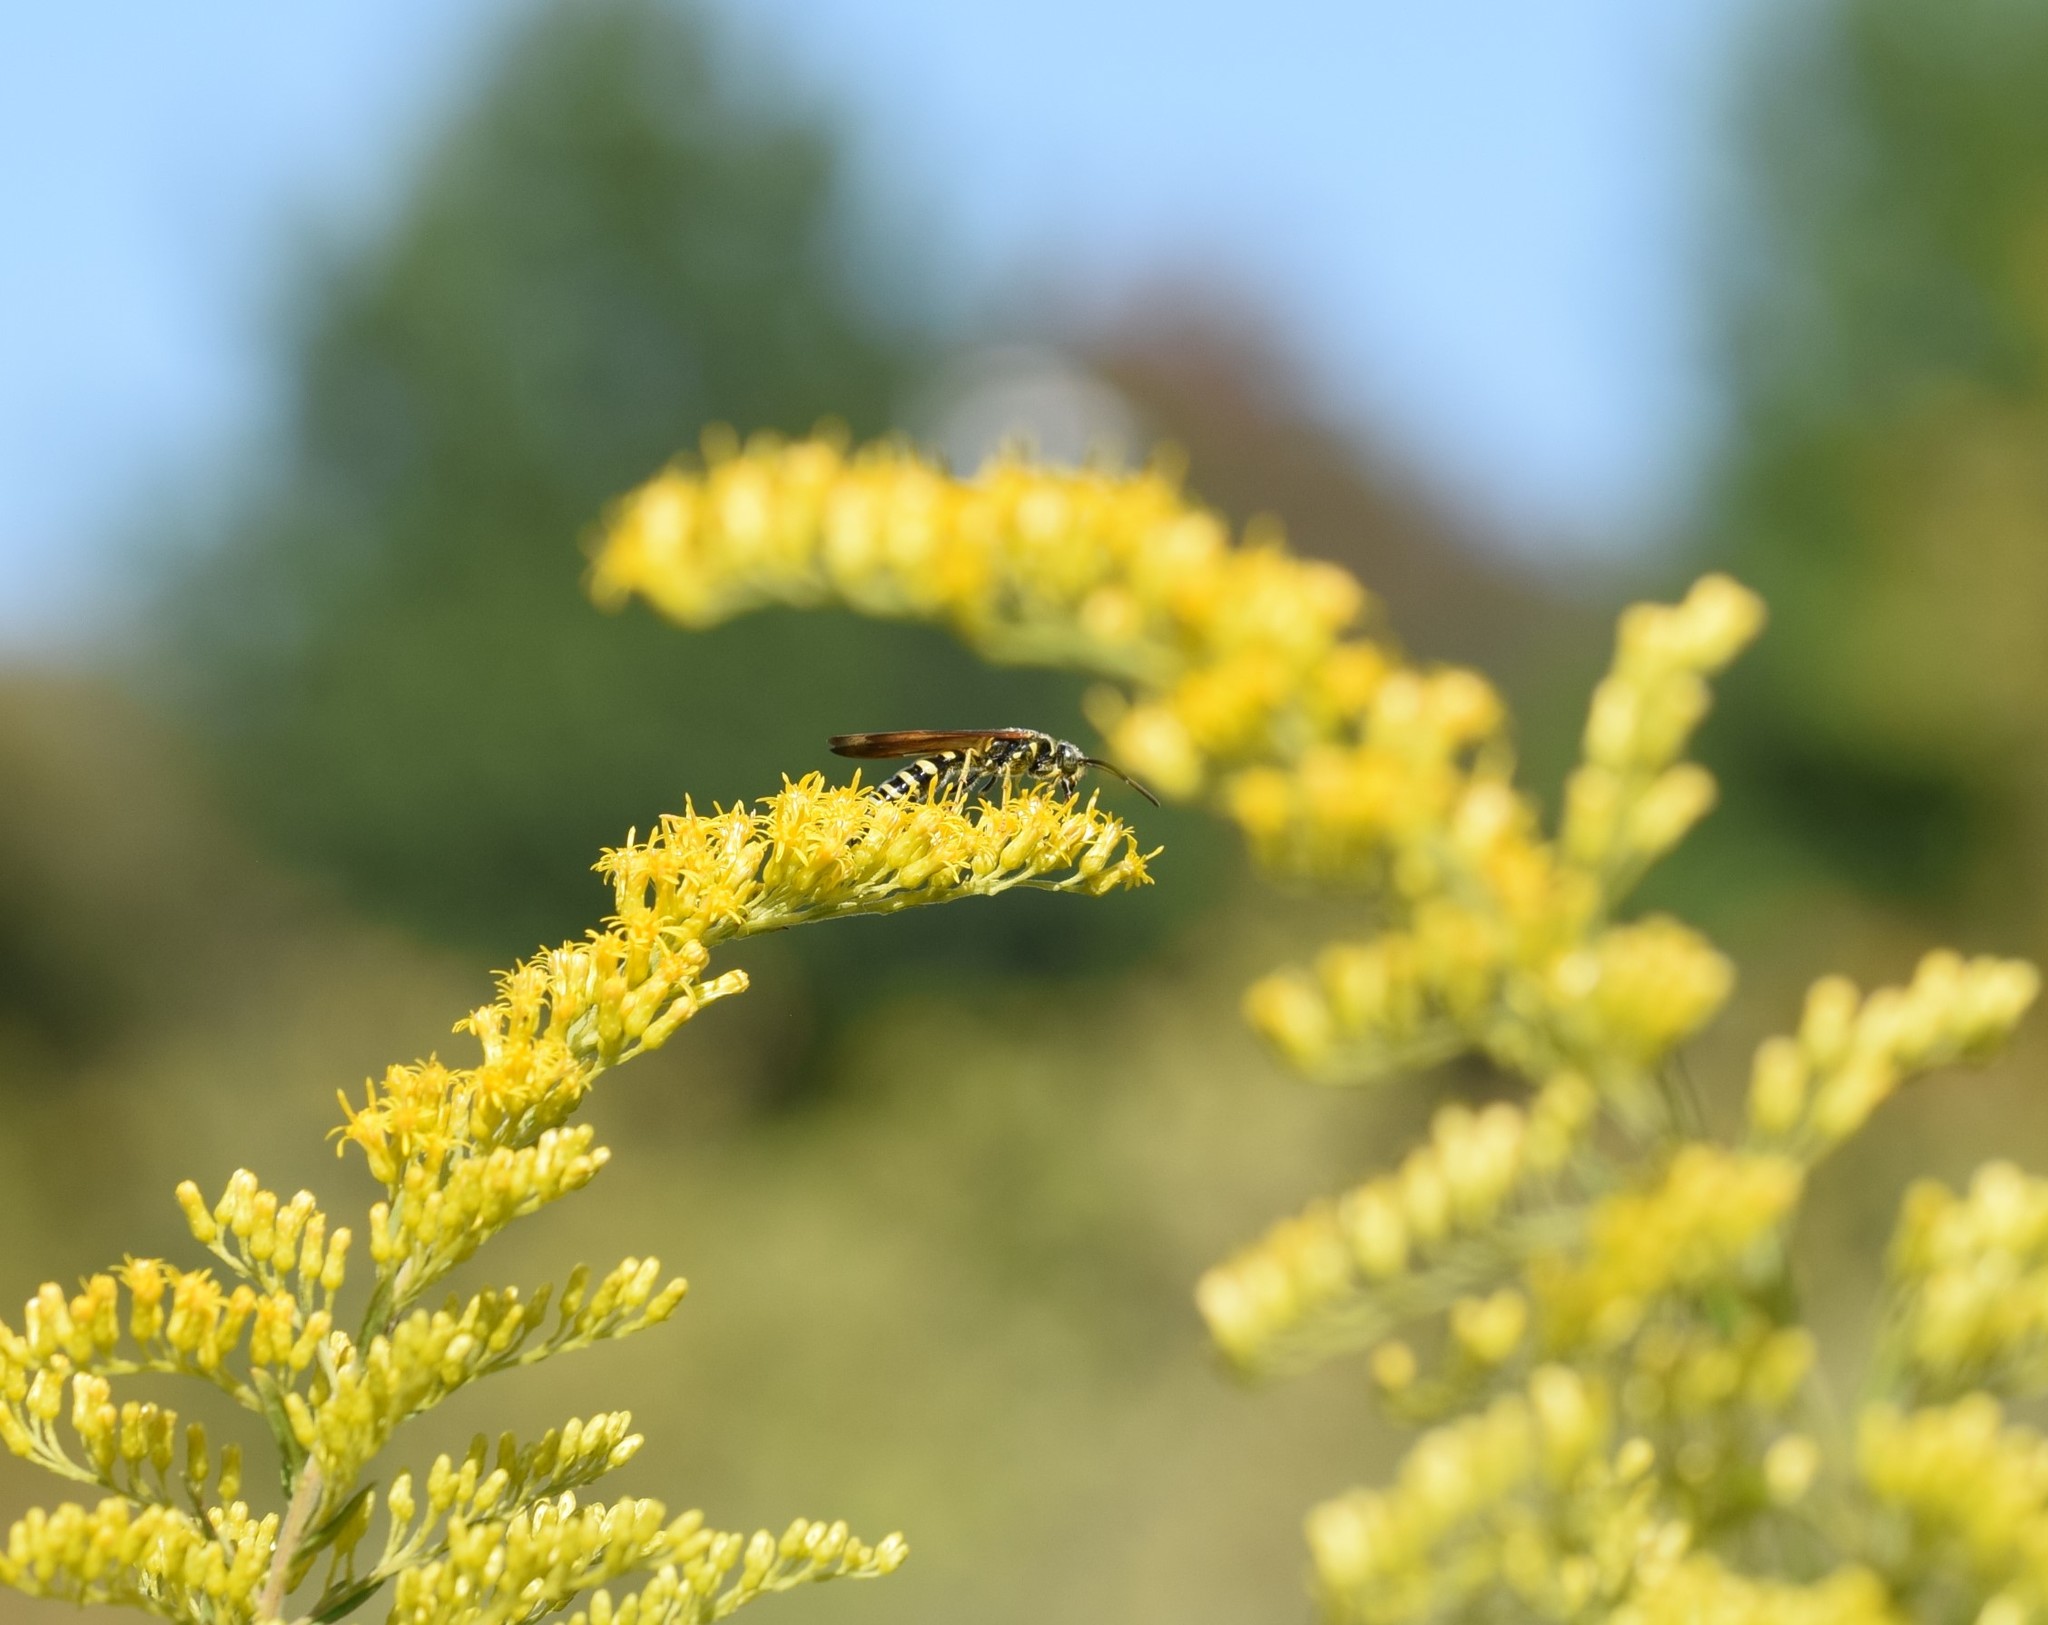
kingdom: Animalia
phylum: Arthropoda
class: Insecta
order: Hymenoptera
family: Tiphiidae
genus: Myzinum
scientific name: Myzinum quinquecinctum
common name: Five-banded thynnid wasp
